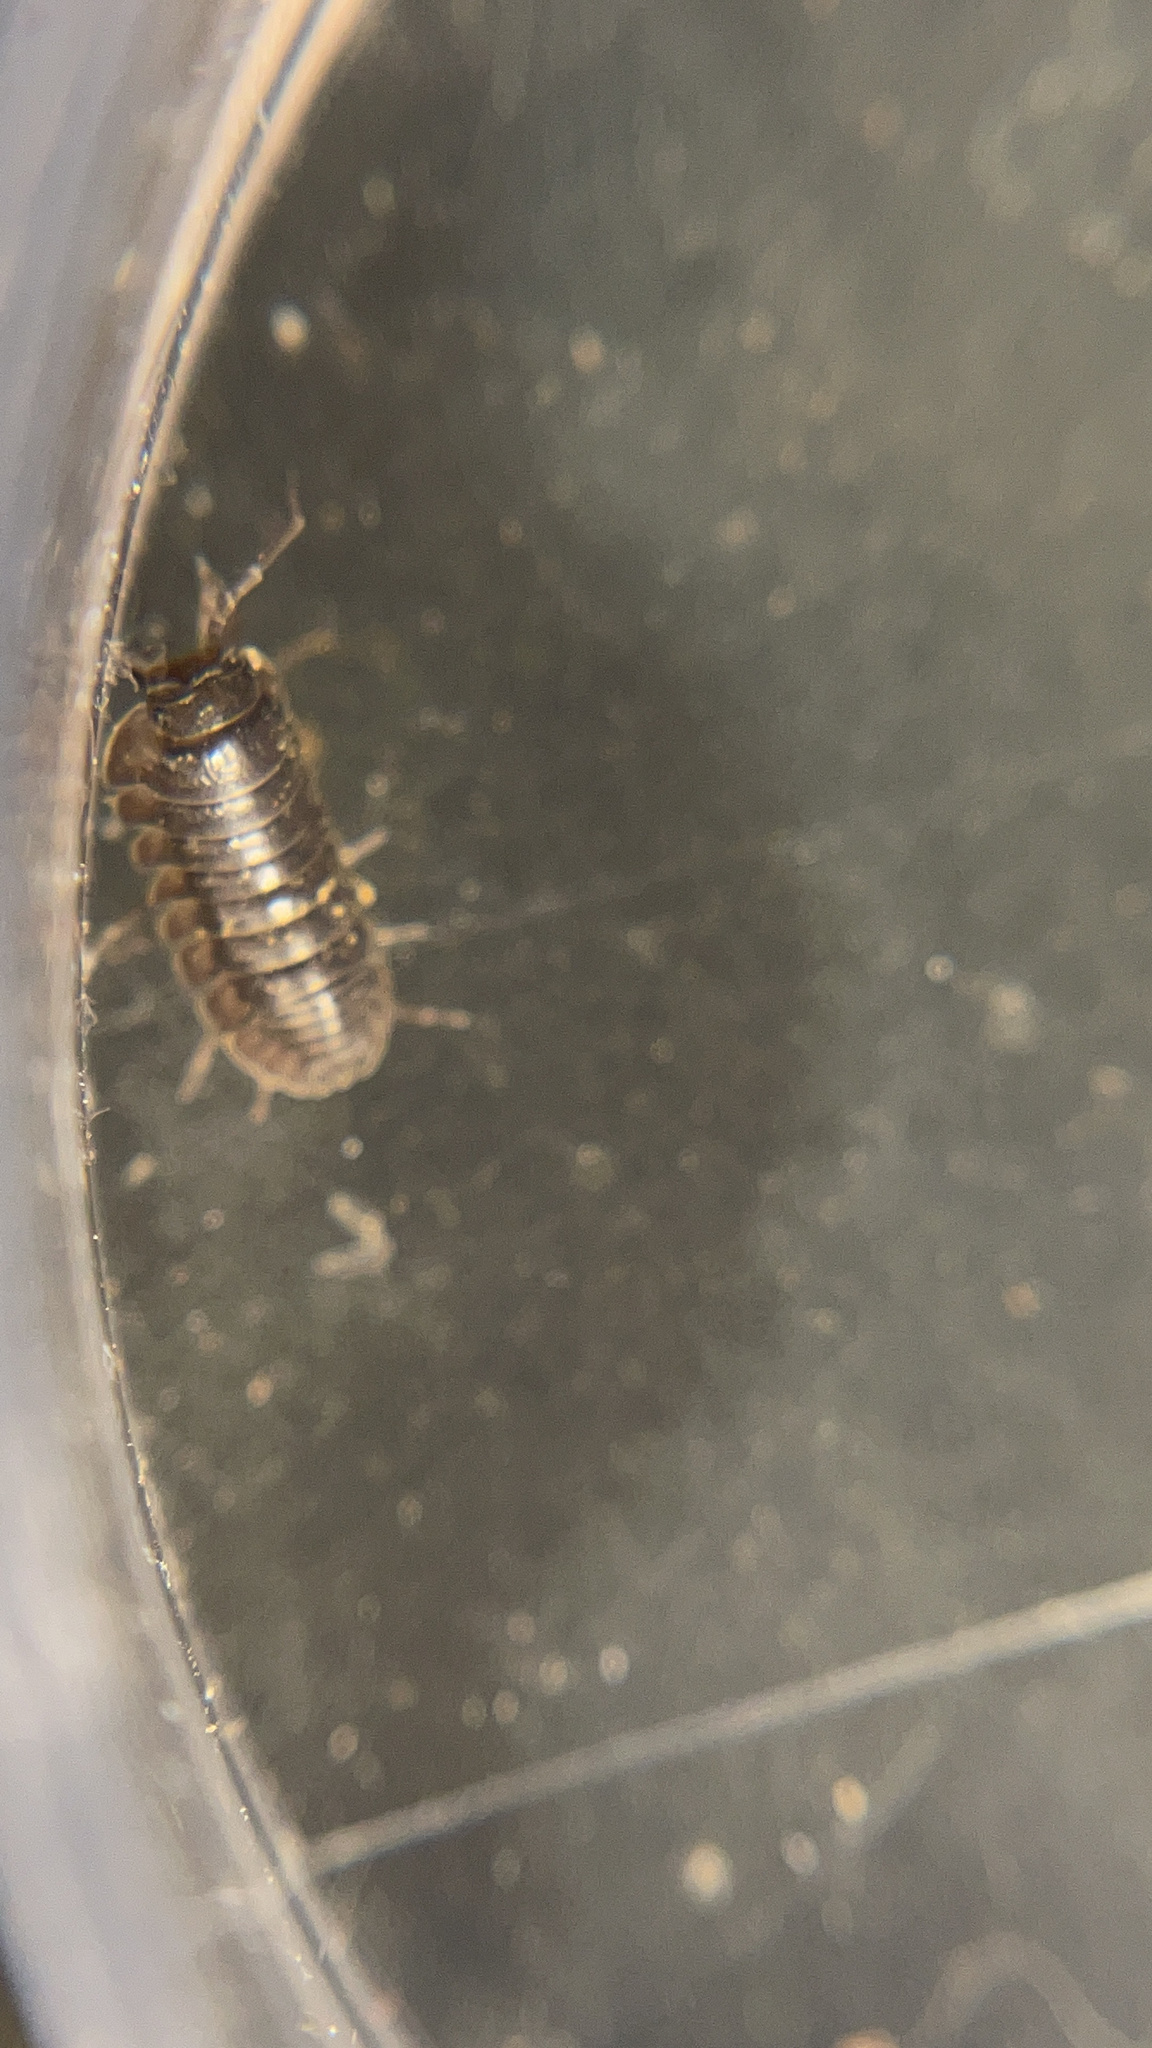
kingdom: Animalia
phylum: Arthropoda
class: Malacostraca
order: Isopoda
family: Armadillidiidae
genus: Armadillidium
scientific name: Armadillidium nasatum
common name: Isopod
